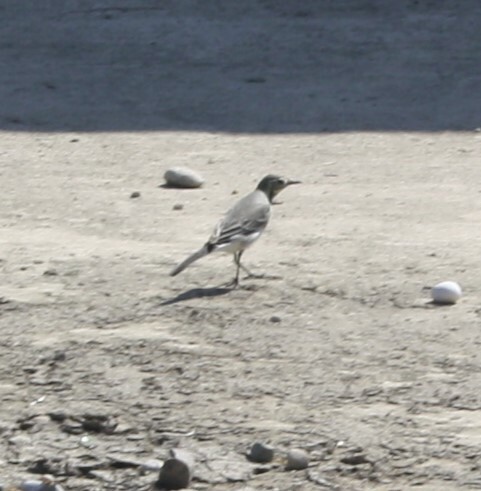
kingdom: Animalia
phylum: Chordata
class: Aves
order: Passeriformes
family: Motacillidae
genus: Motacilla
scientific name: Motacilla alba
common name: White wagtail
